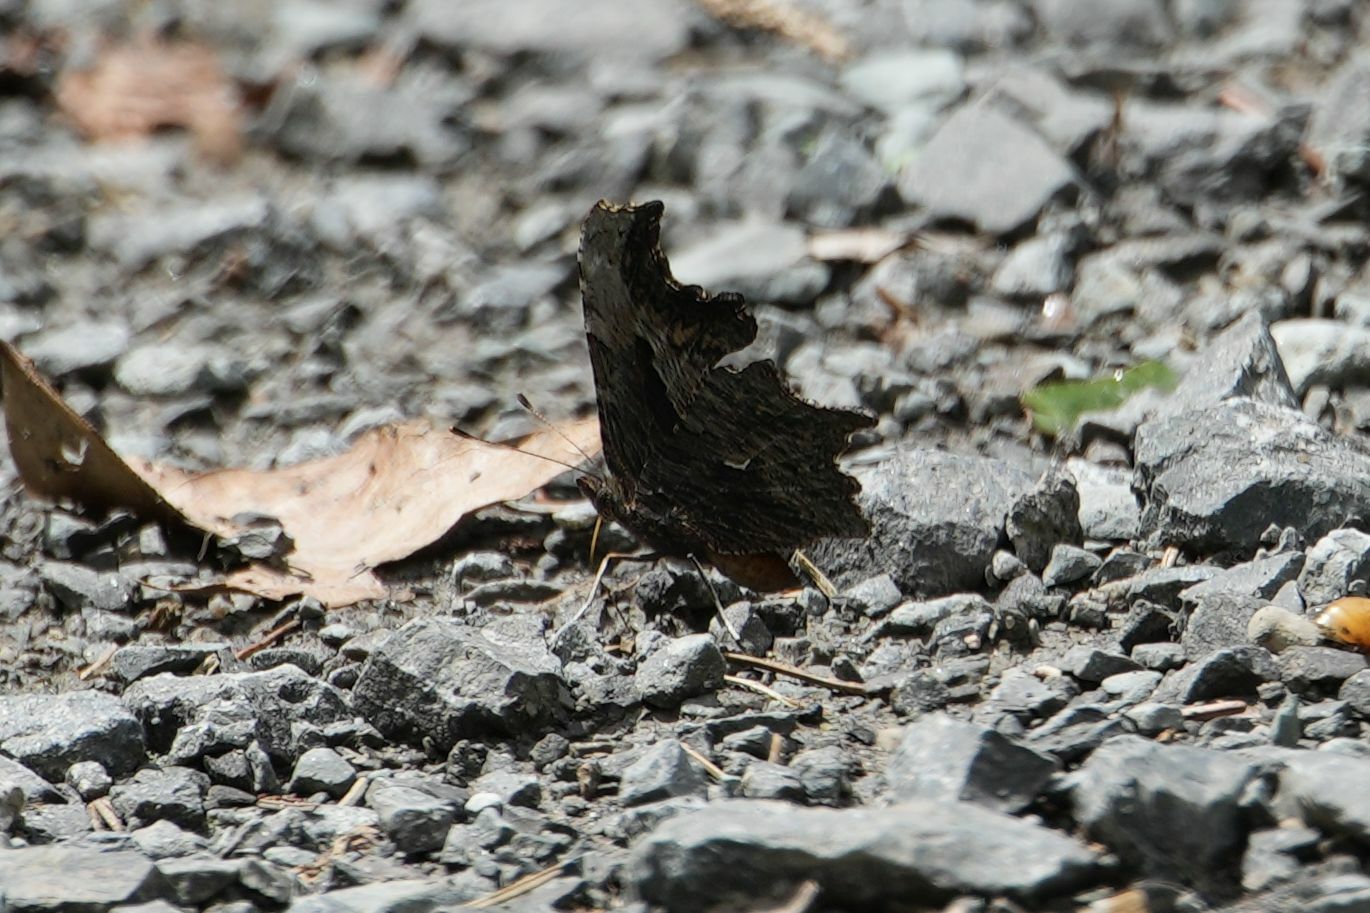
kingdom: Animalia
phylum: Arthropoda
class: Insecta
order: Lepidoptera
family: Nymphalidae
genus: Polygonia
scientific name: Polygonia progne
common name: Gray comma
